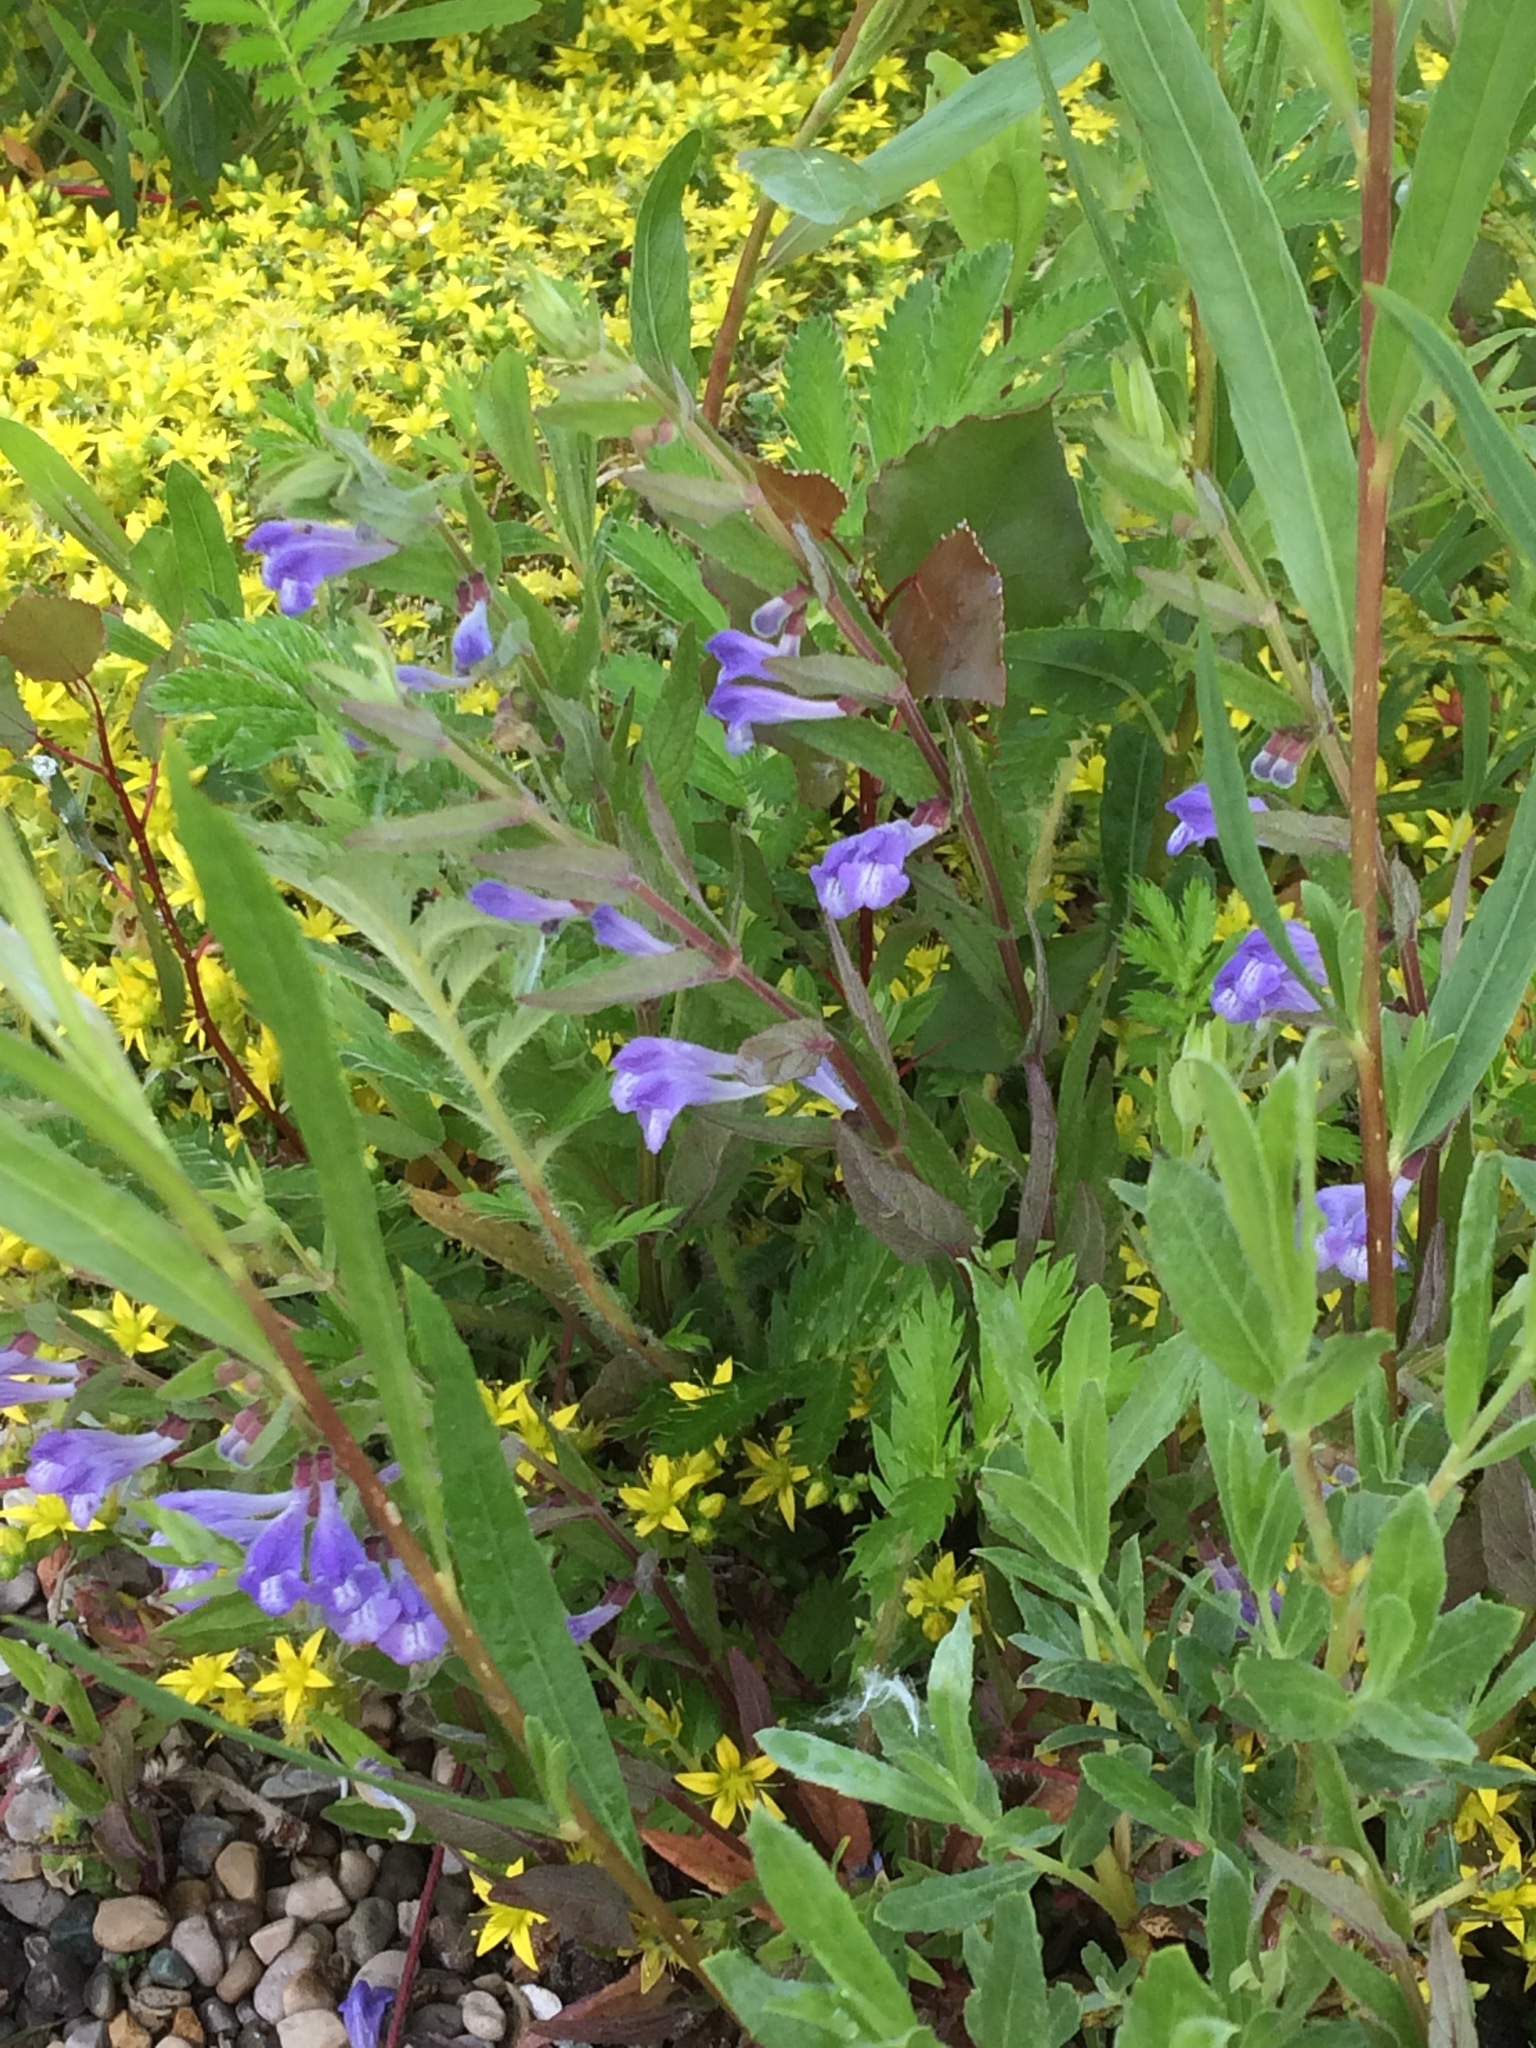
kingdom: Plantae
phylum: Tracheophyta
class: Magnoliopsida
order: Lamiales
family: Lamiaceae
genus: Scutellaria
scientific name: Scutellaria galericulata
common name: Skullcap
